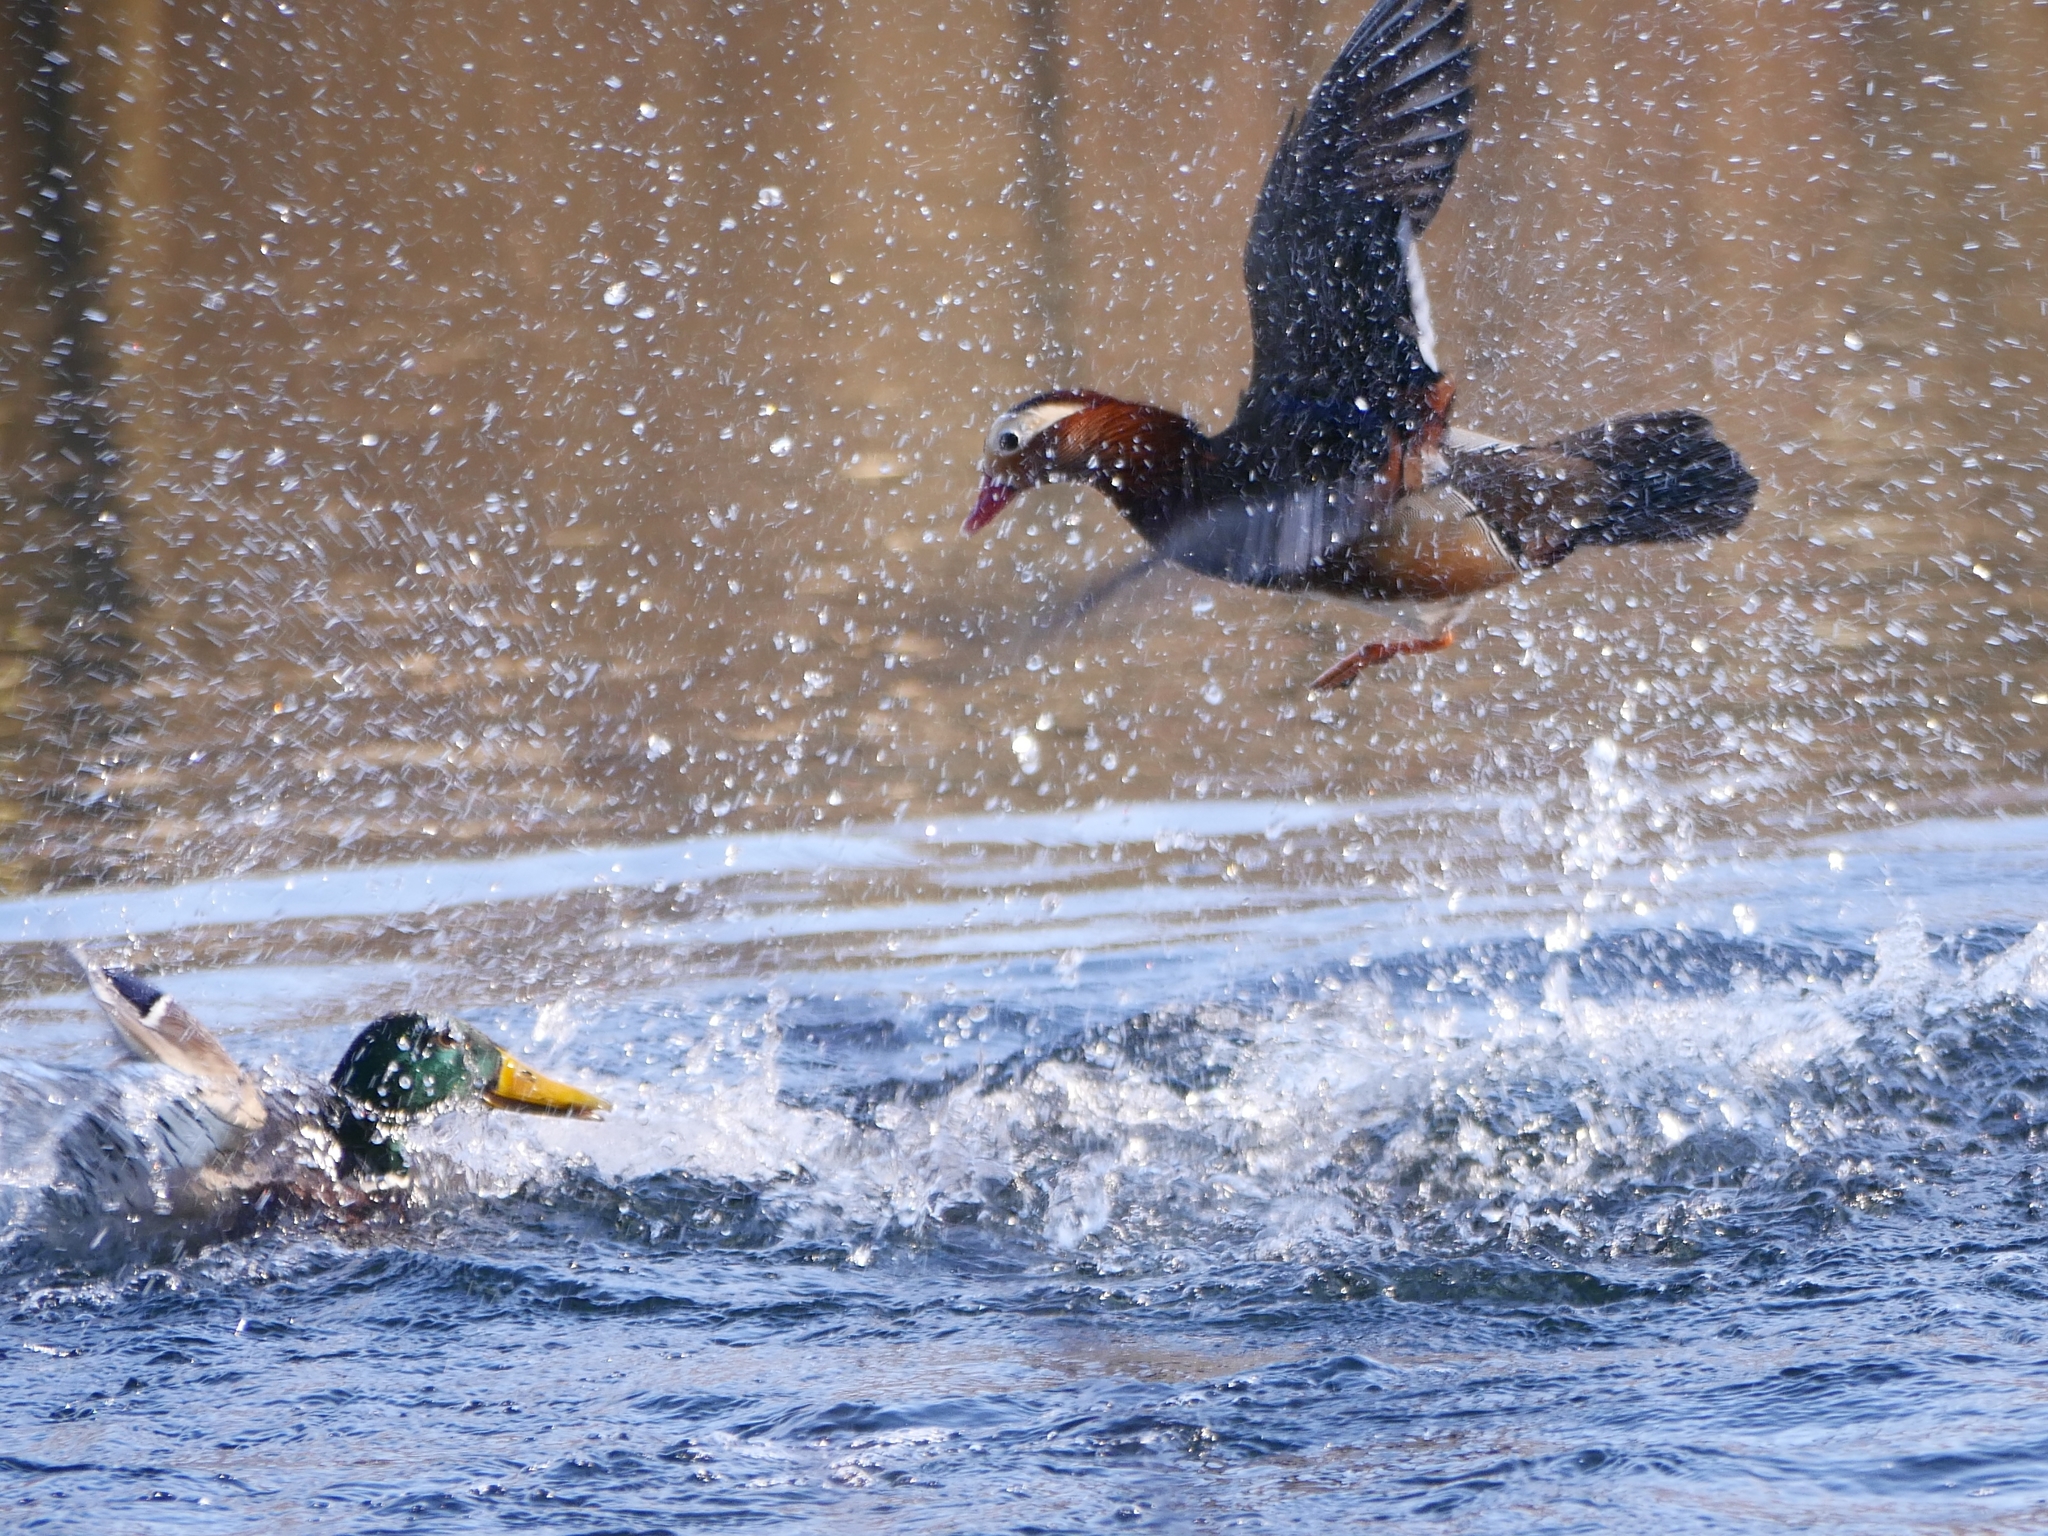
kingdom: Animalia
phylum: Chordata
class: Aves
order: Anseriformes
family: Anatidae
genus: Aix
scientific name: Aix galericulata
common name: Mandarin duck
